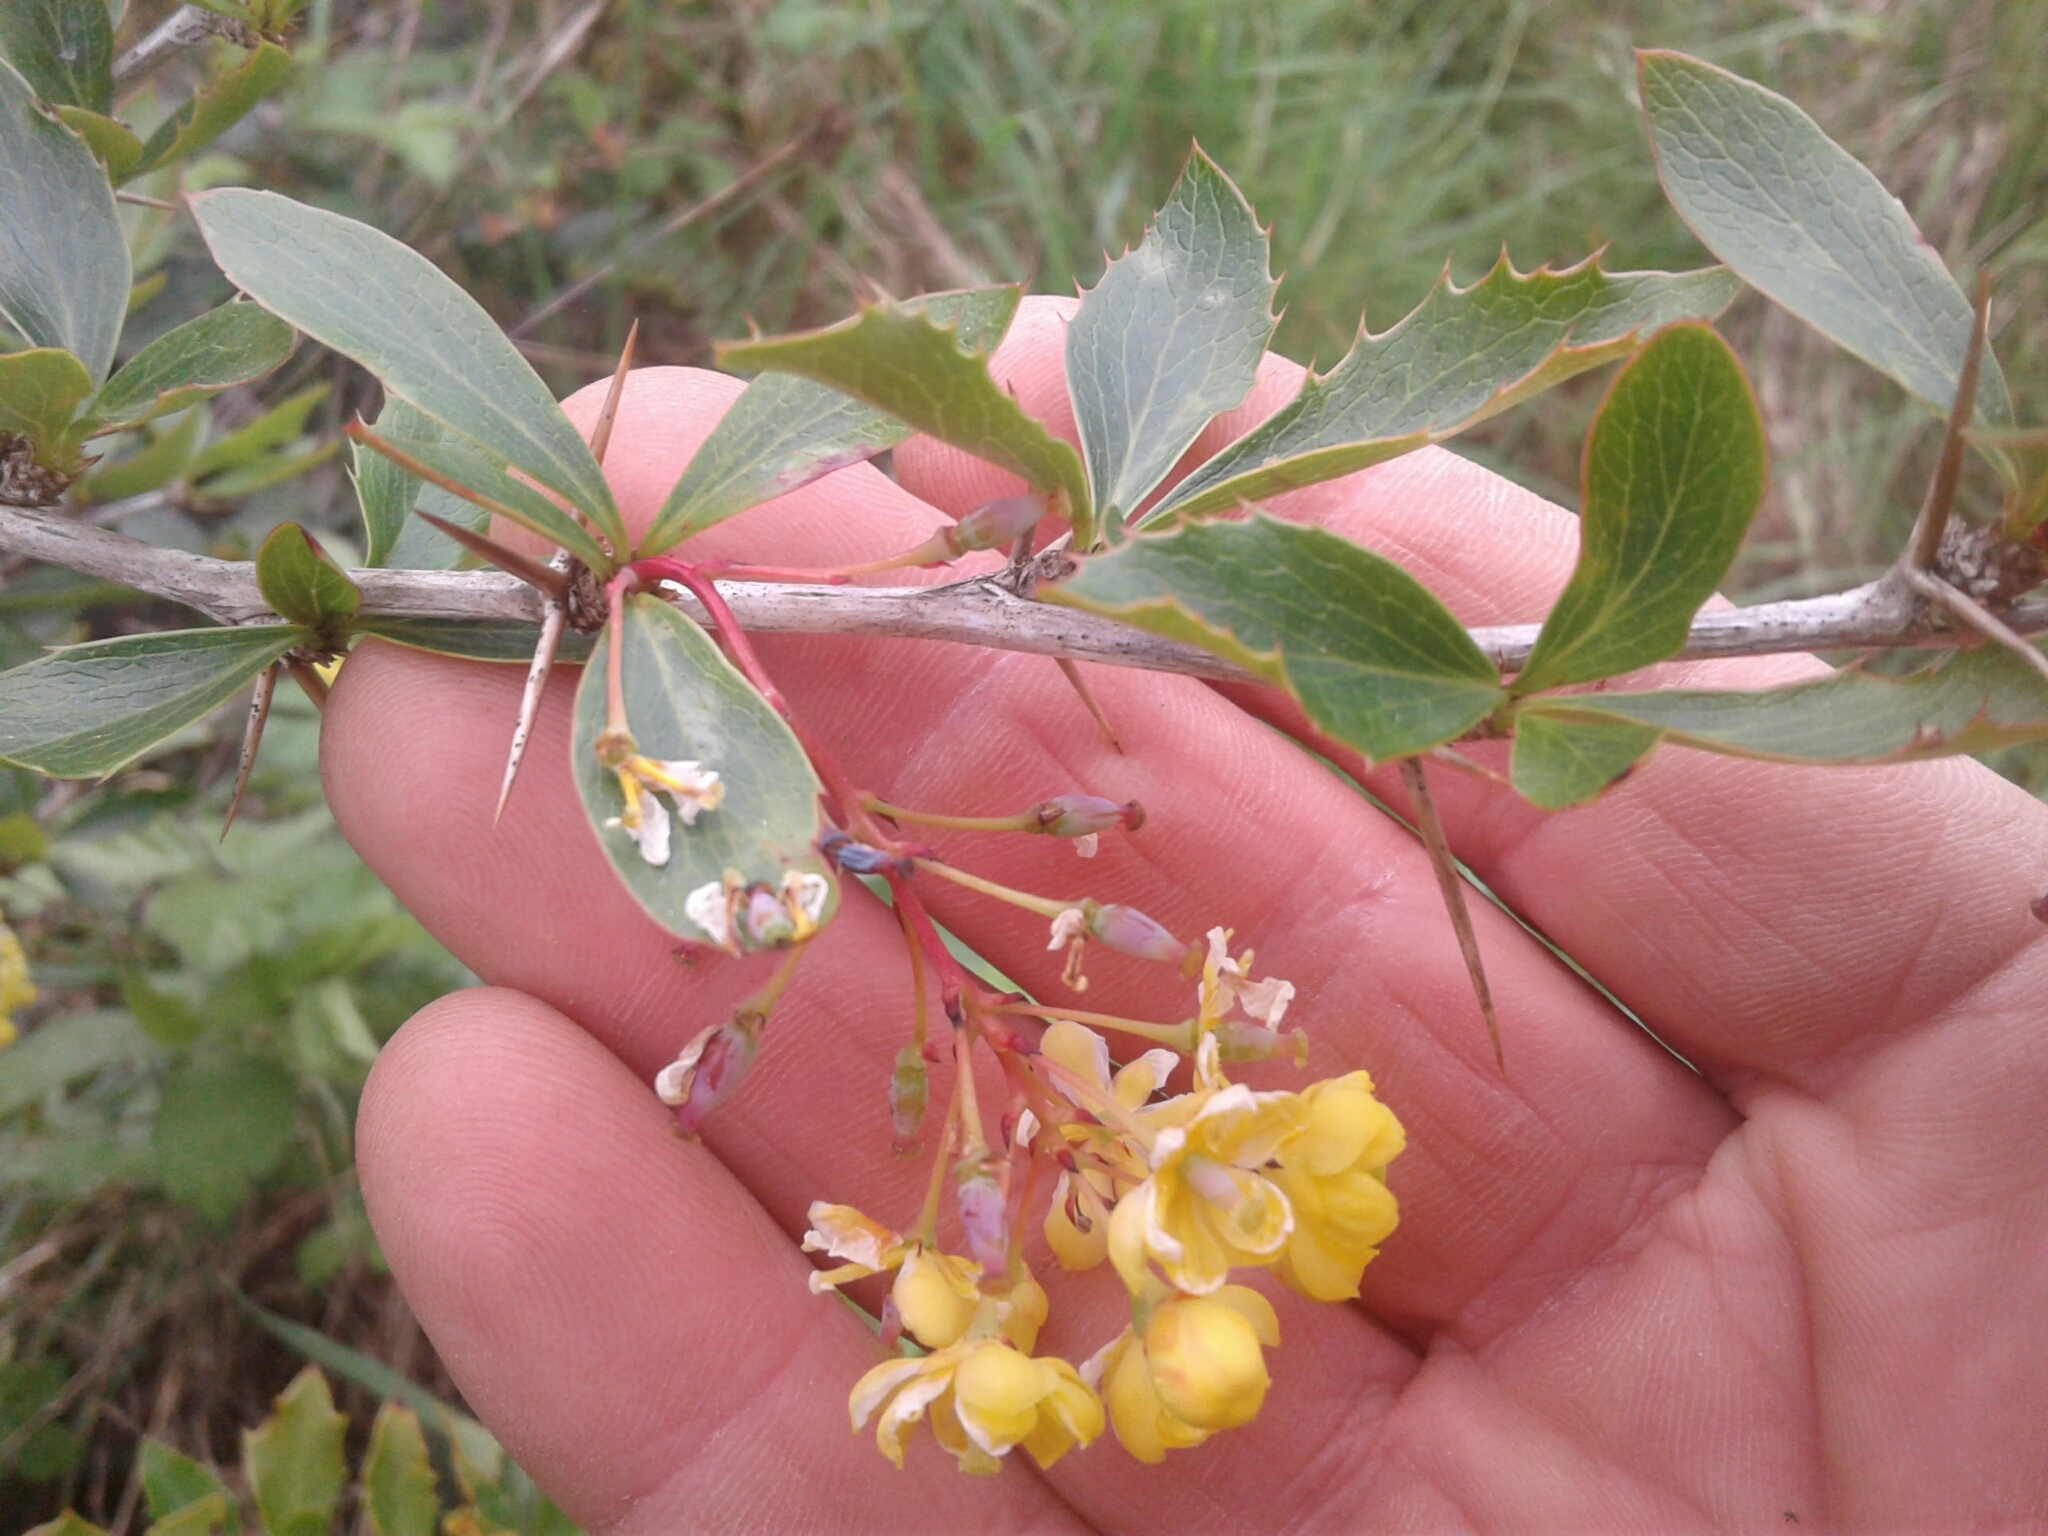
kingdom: Plantae
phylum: Tracheophyta
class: Magnoliopsida
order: Ranunculales
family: Berberidaceae
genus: Berberis
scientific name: Berberis glaucocarpa
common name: Great barberry
